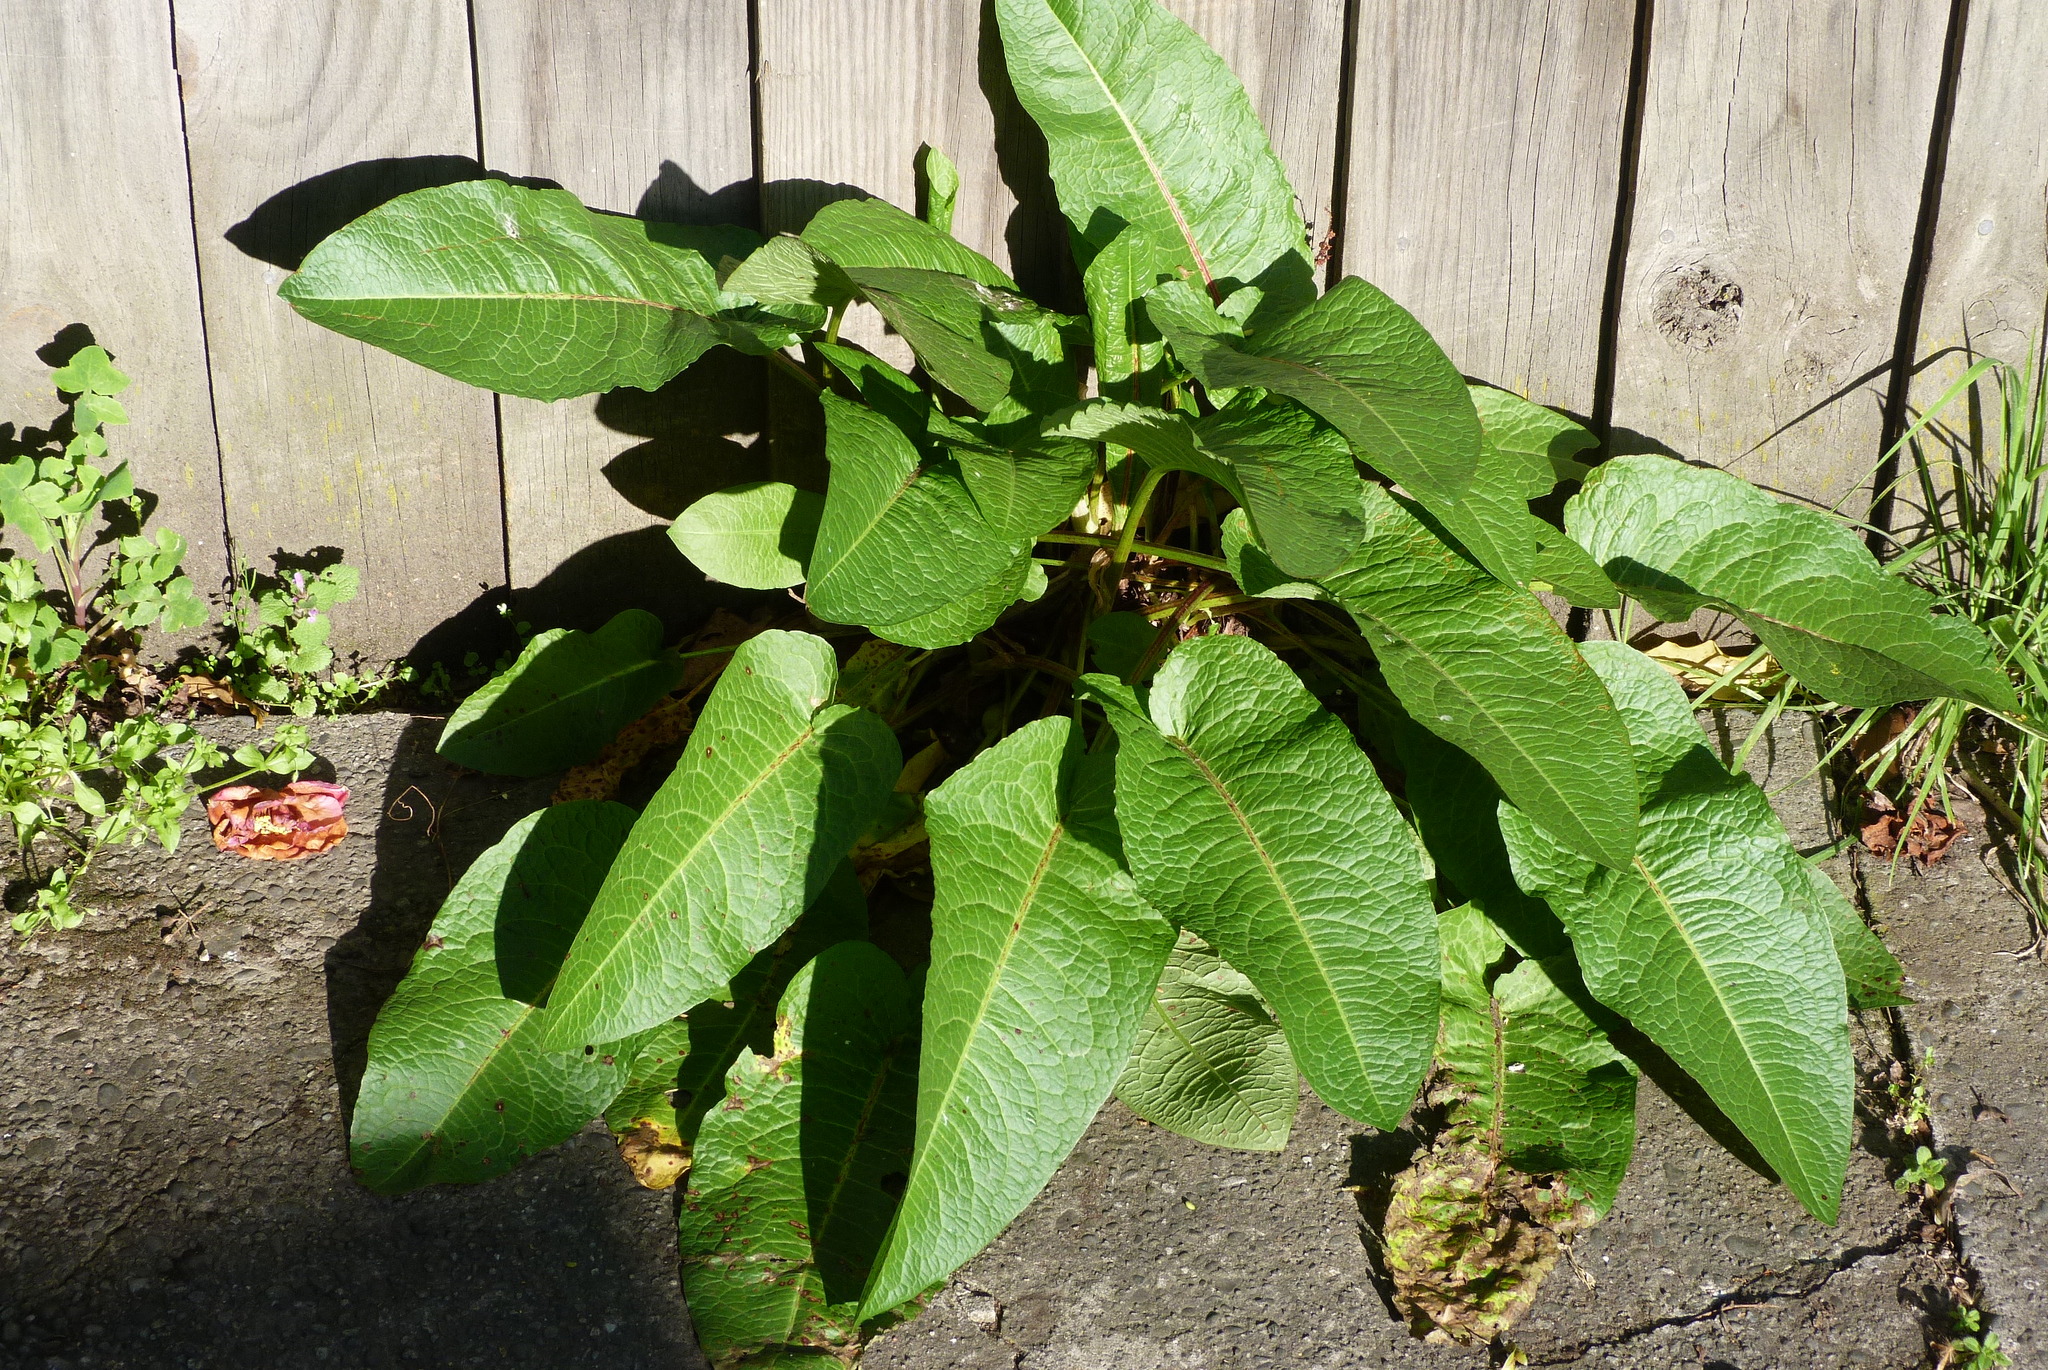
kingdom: Plantae
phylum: Tracheophyta
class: Magnoliopsida
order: Caryophyllales
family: Polygonaceae
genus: Rumex
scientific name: Rumex obtusifolius
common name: Bitter dock
